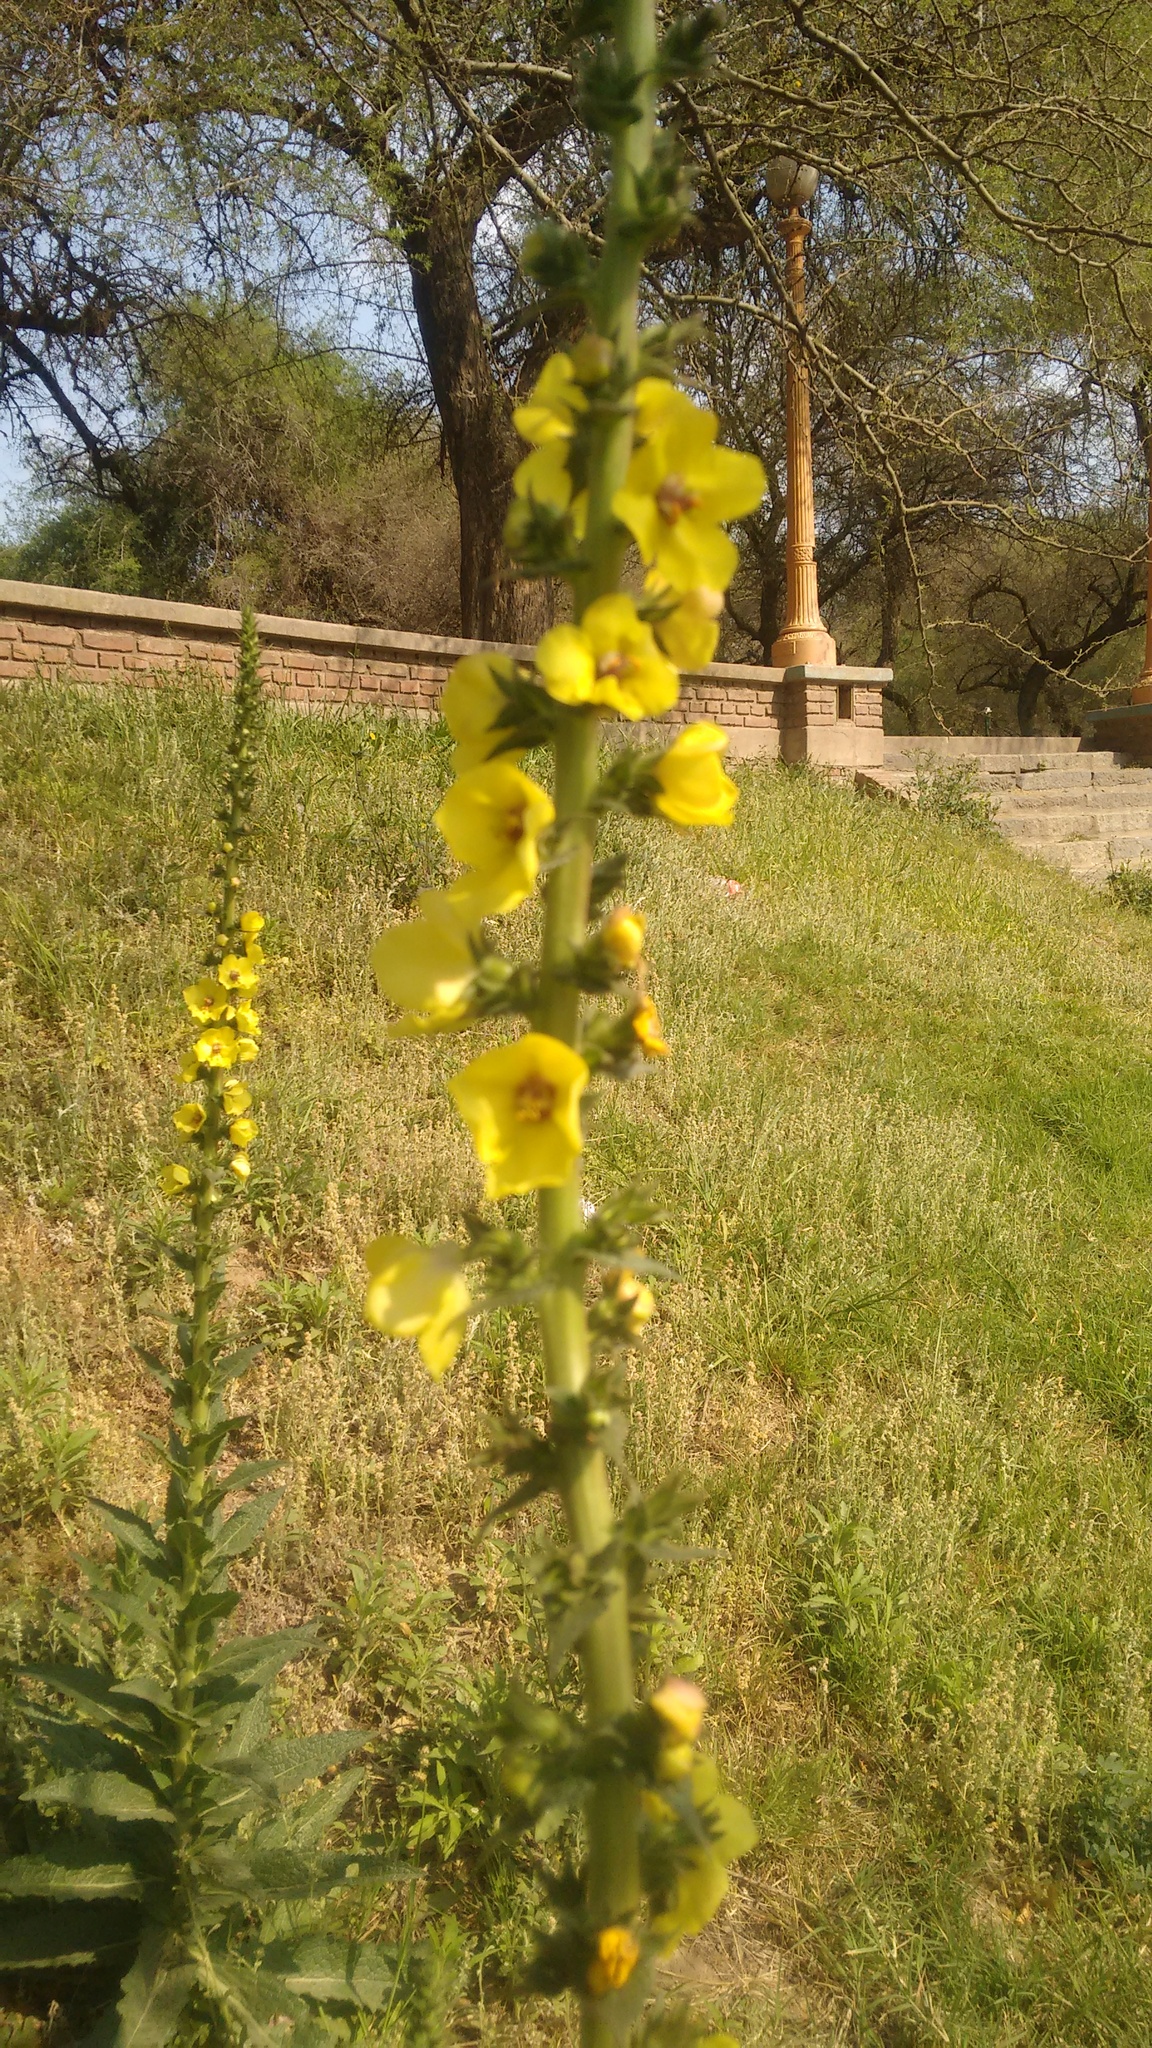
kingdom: Plantae
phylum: Tracheophyta
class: Magnoliopsida
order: Lamiales
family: Scrophulariaceae
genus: Verbascum
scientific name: Verbascum virgatum
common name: Twiggy mullein
